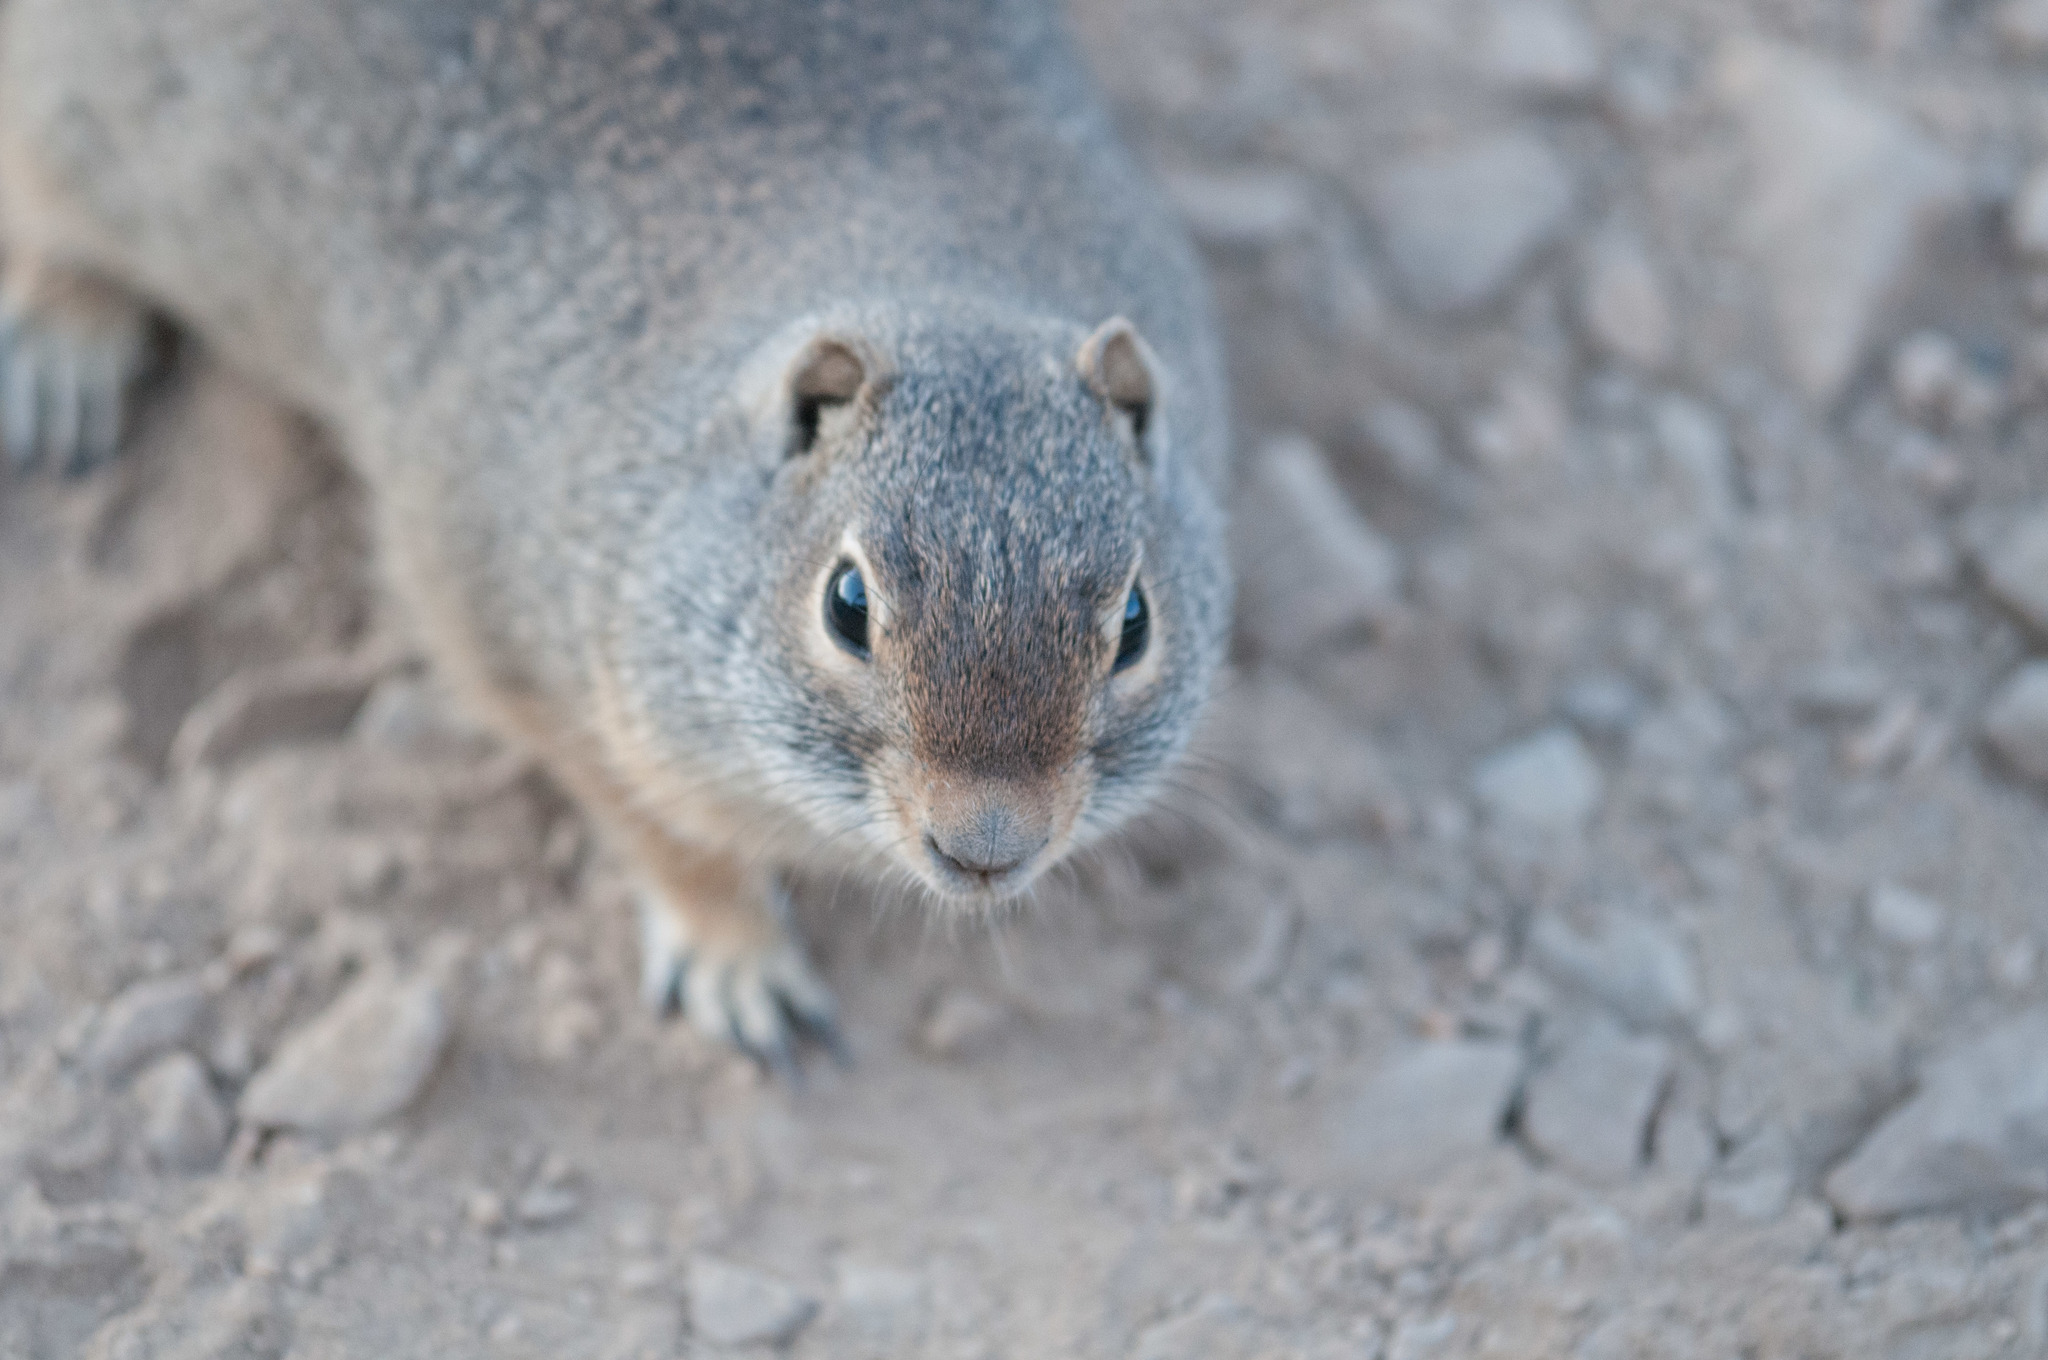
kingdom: Animalia
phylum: Chordata
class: Mammalia
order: Rodentia
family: Sciuridae
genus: Urocitellus
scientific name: Urocitellus armatus
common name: Uinta ground squirrel
